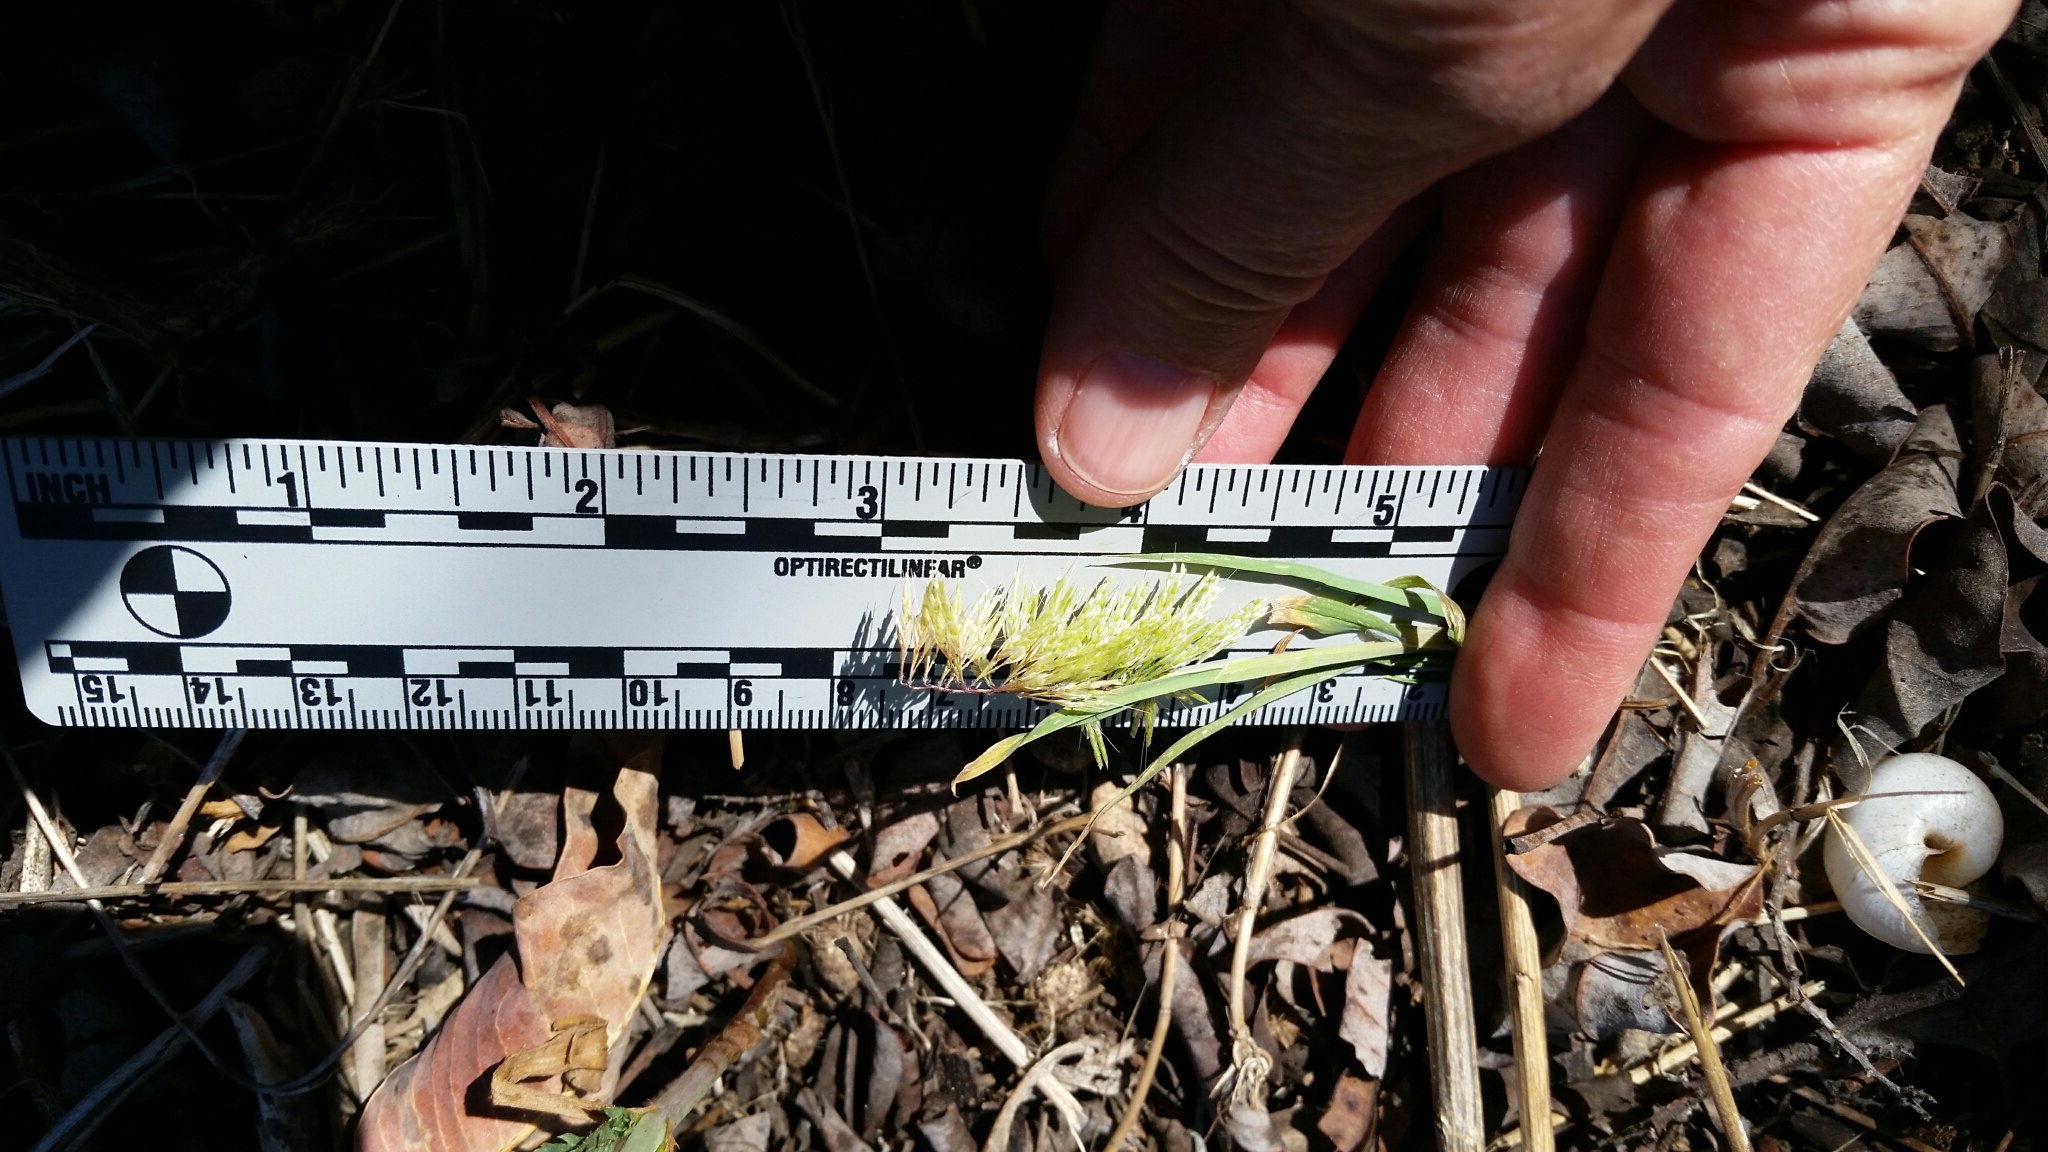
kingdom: Plantae
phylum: Tracheophyta
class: Liliopsida
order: Poales
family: Poaceae
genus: Lamarckia
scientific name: Lamarckia aurea
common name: Golden dog's-tail
